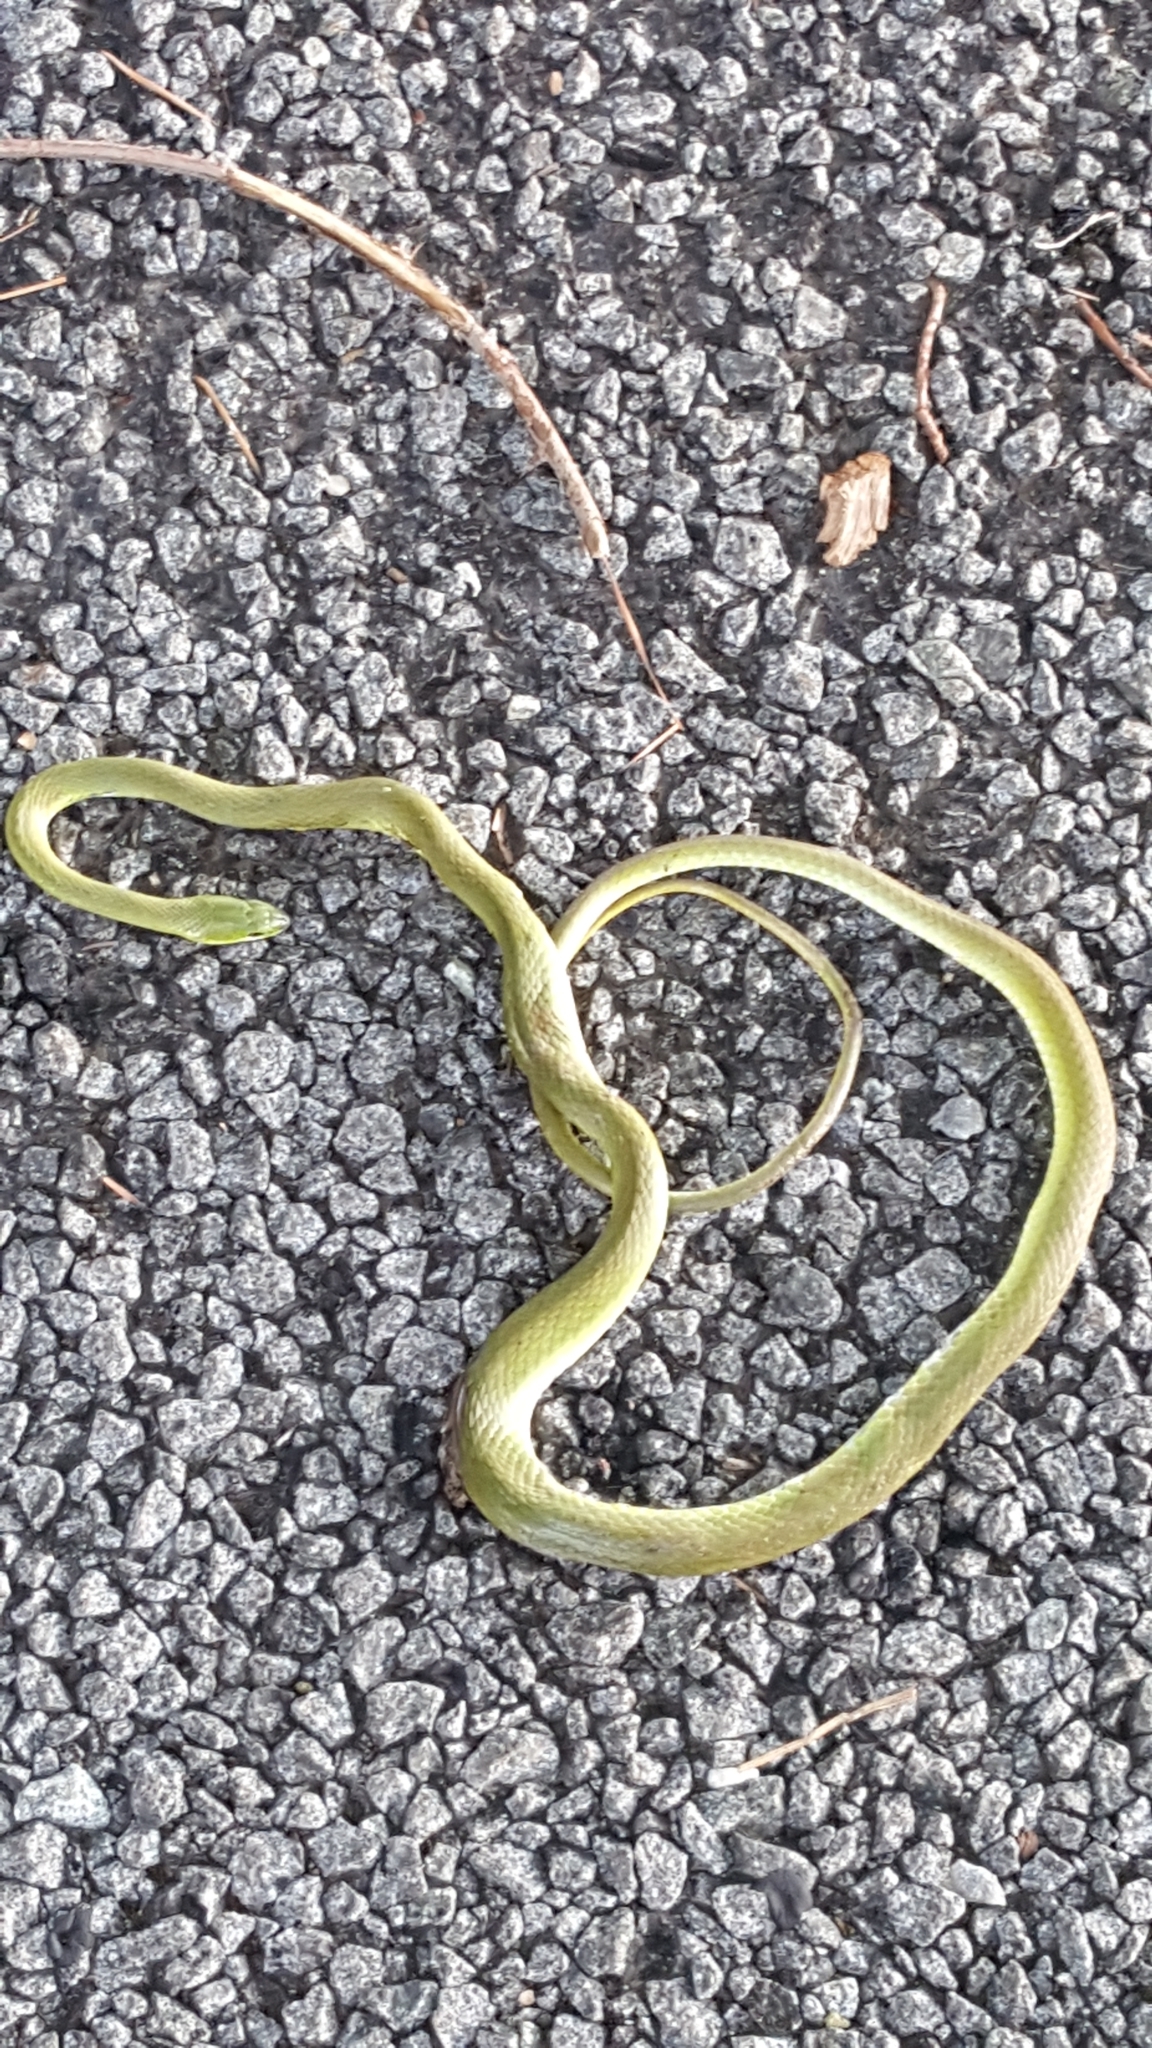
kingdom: Animalia
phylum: Chordata
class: Squamata
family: Colubridae
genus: Opheodrys
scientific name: Opheodrys aestivus
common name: Rough greensnake
